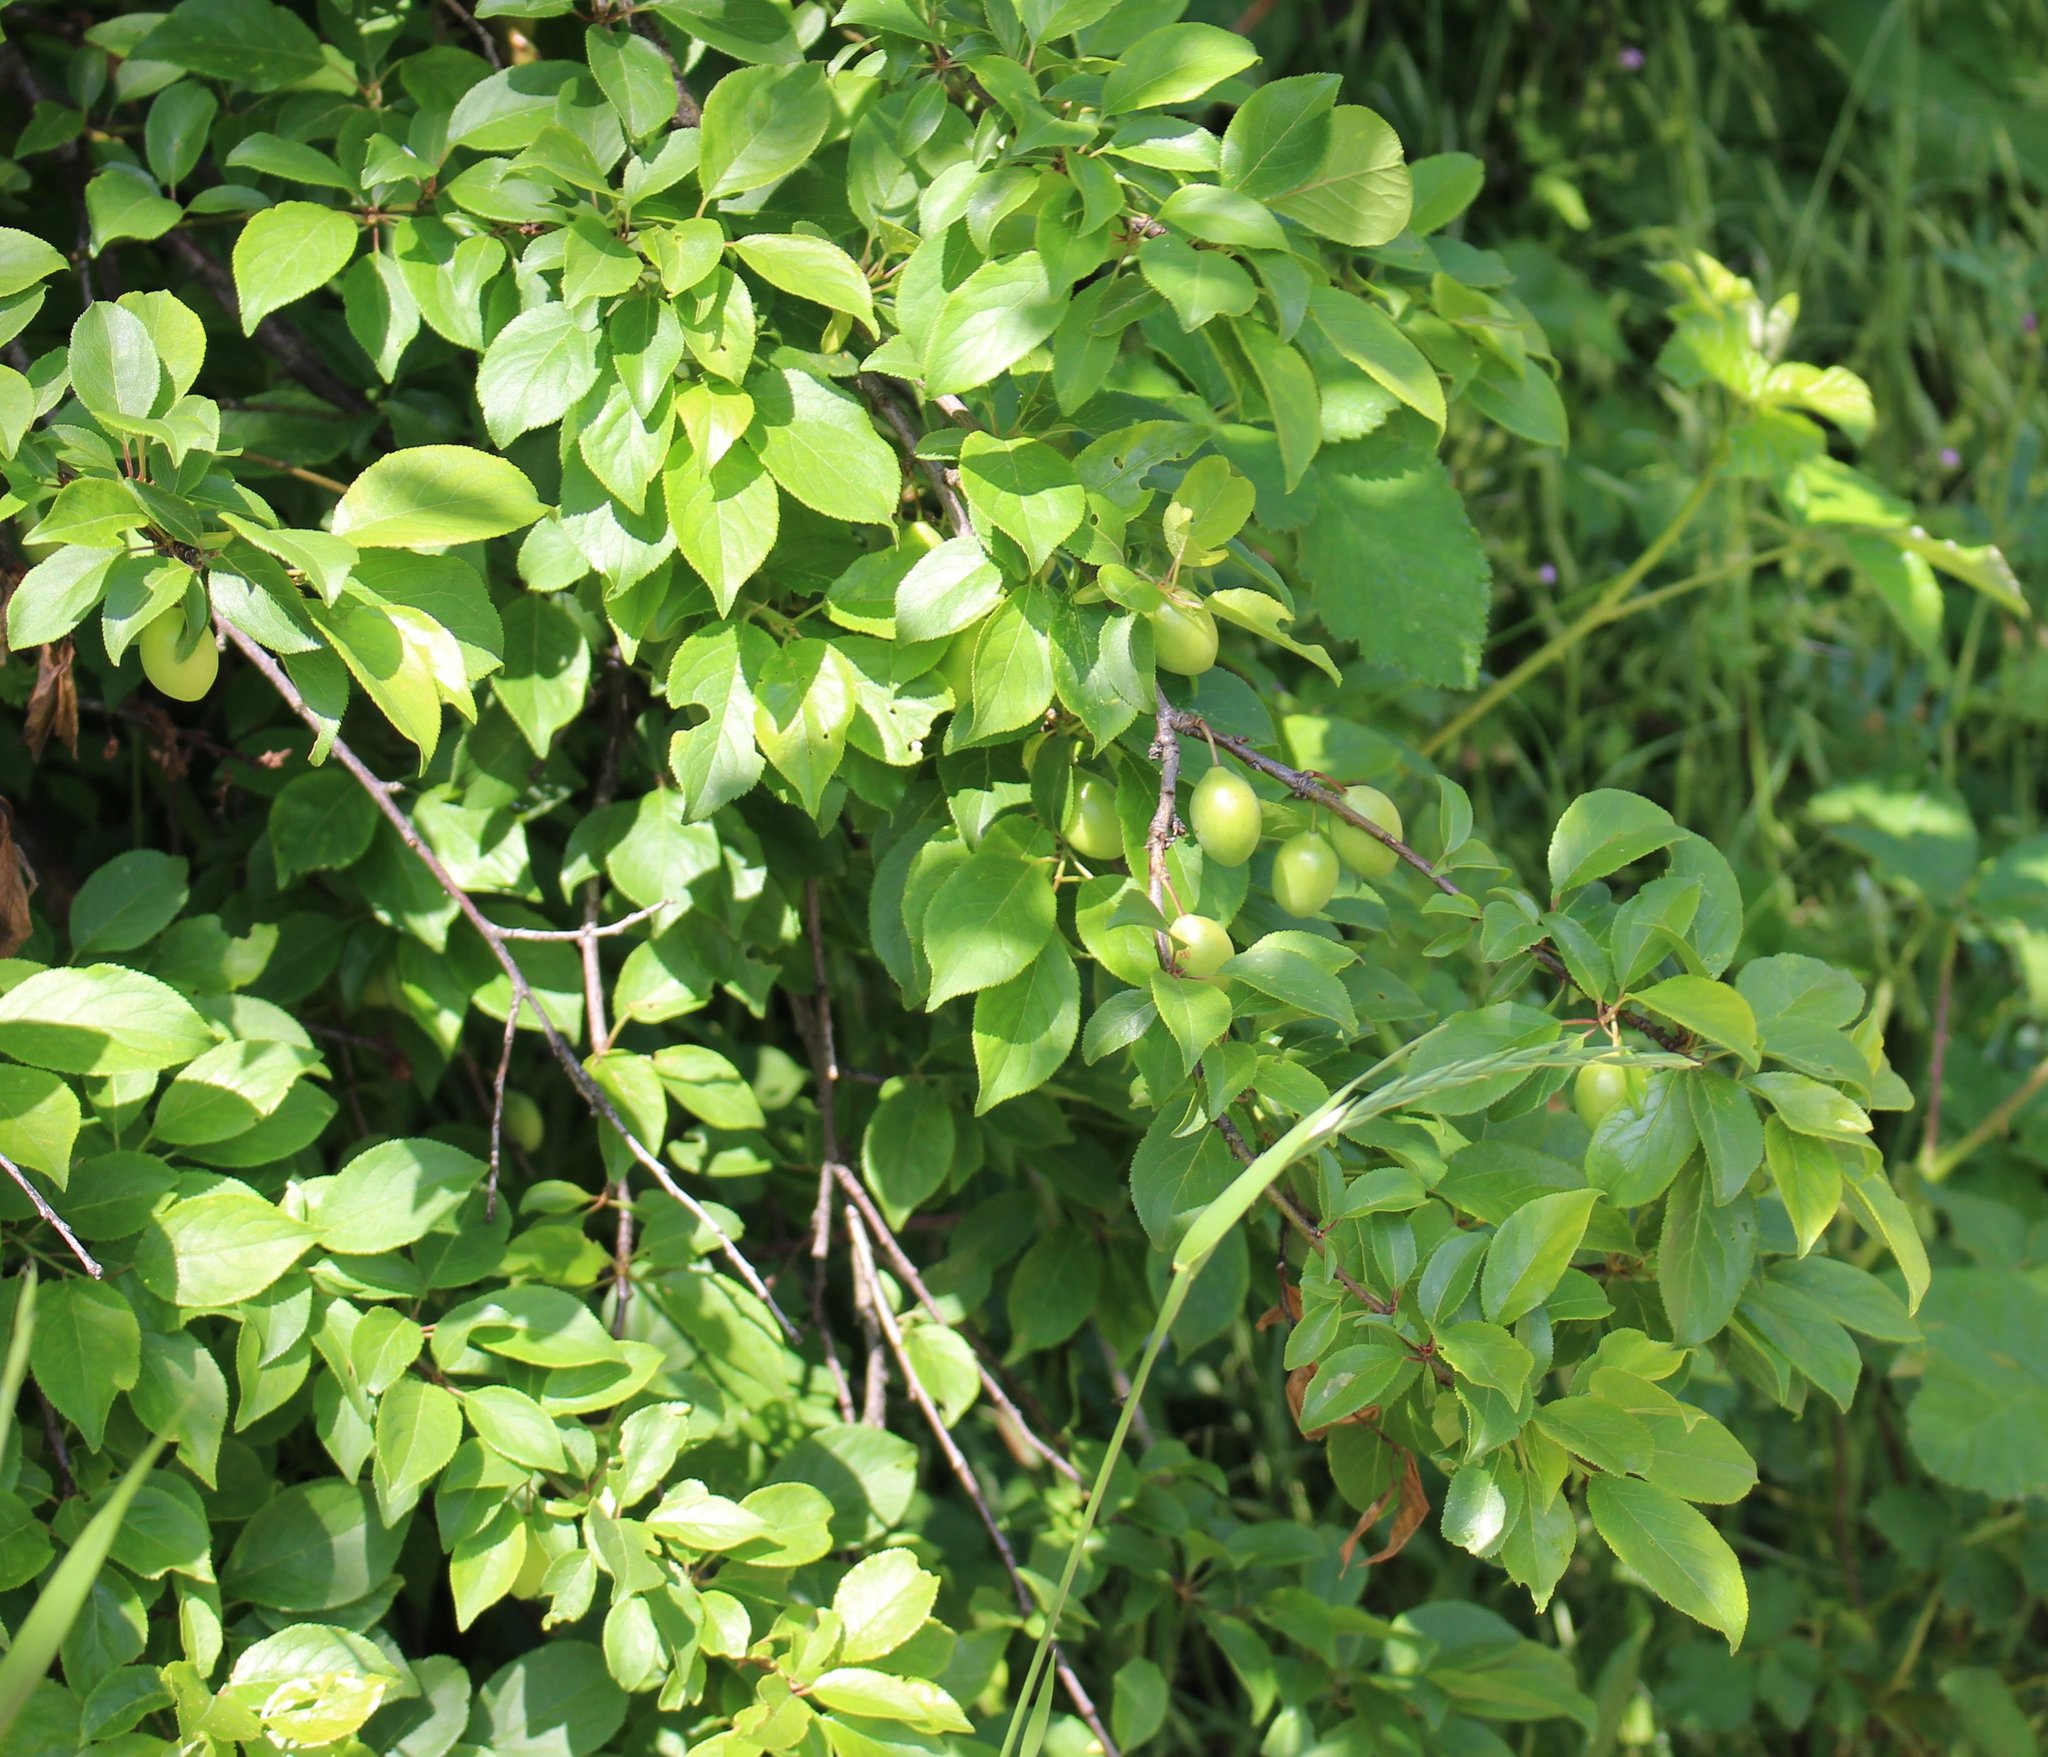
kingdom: Plantae
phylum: Tracheophyta
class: Magnoliopsida
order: Rosales
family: Rosaceae
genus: Prunus
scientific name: Prunus cerasifera
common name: Cherry plum
